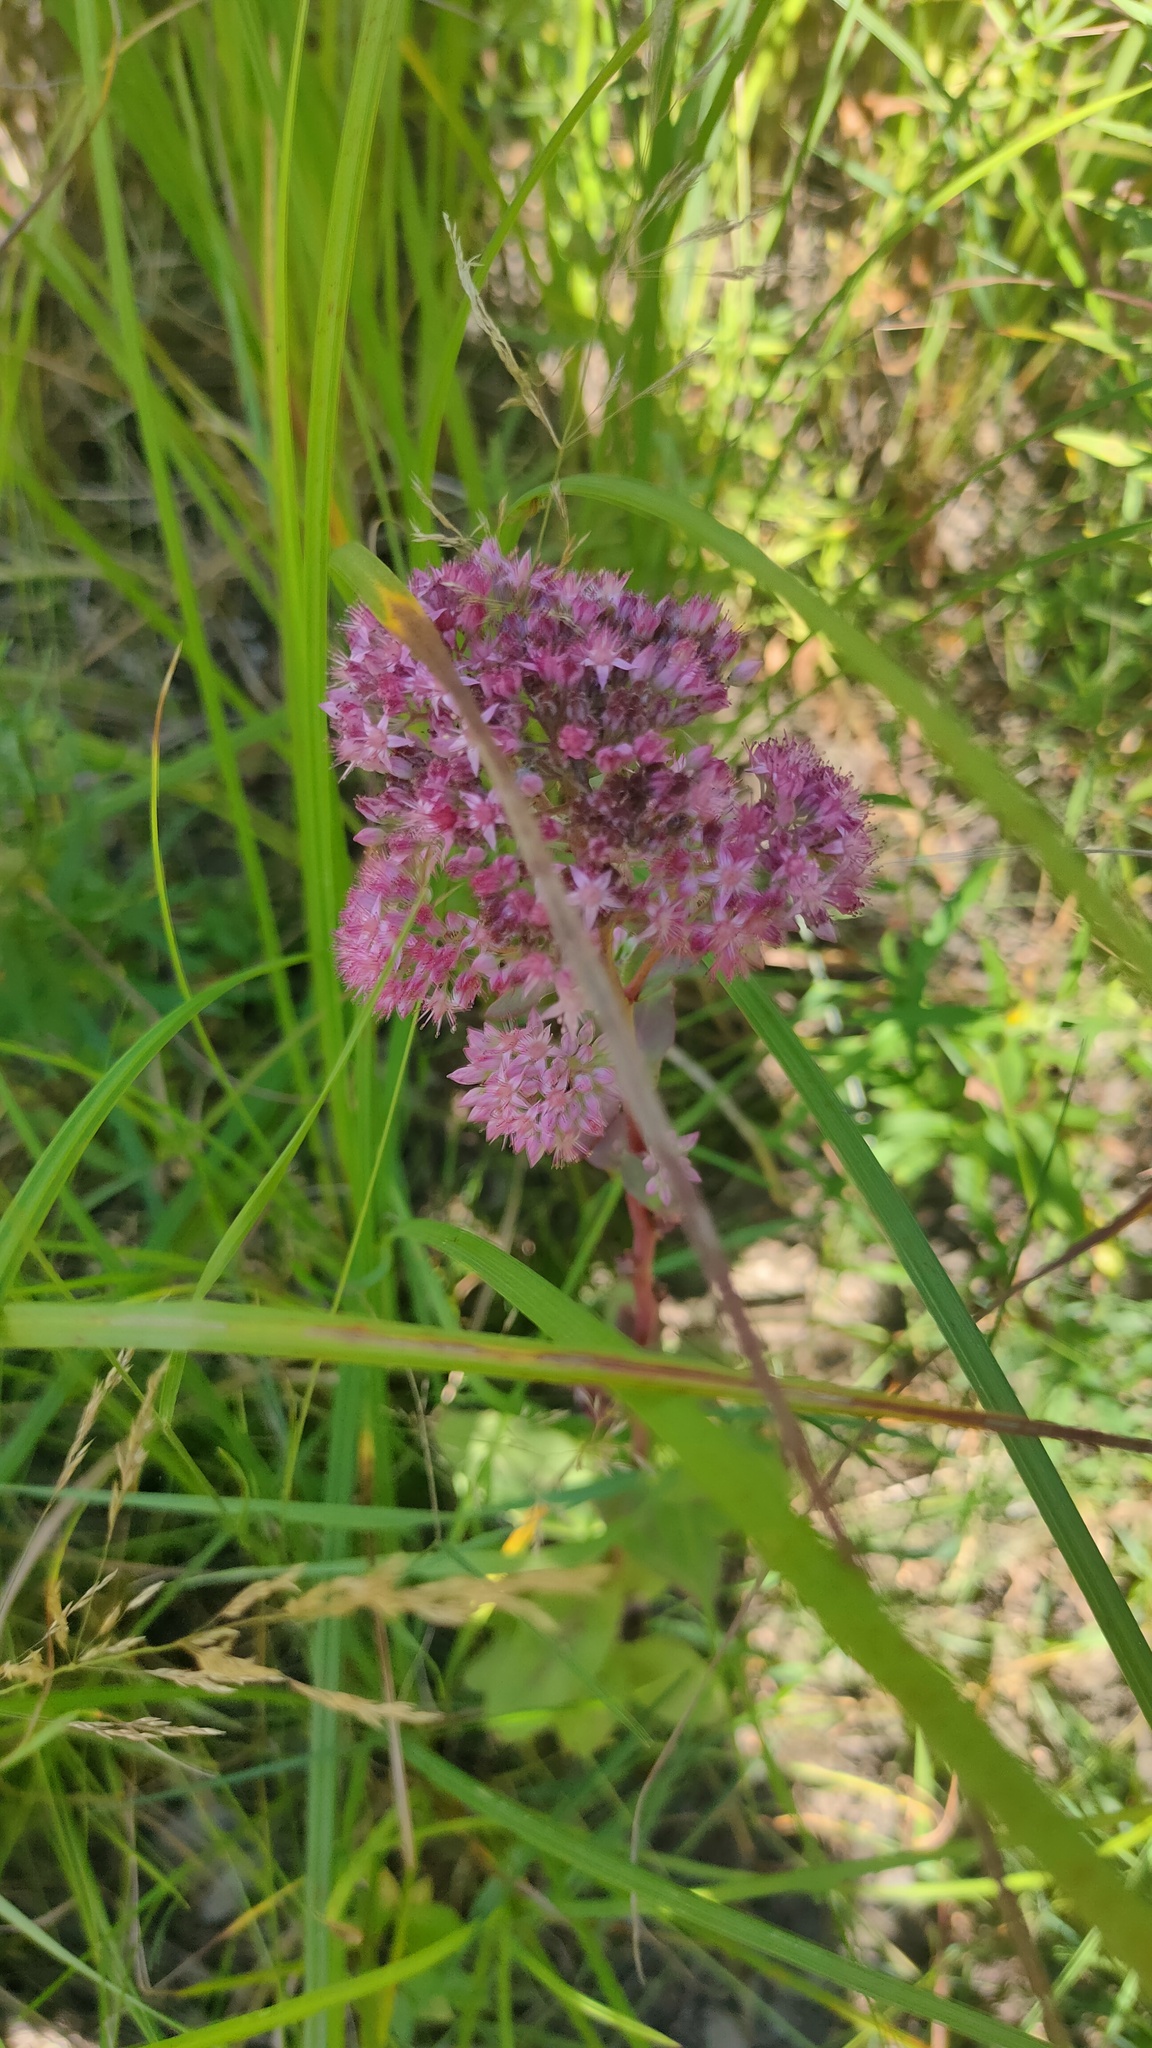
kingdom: Plantae
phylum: Tracheophyta
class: Magnoliopsida
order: Saxifragales
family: Crassulaceae
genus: Hylotelephium
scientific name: Hylotelephium telephium
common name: Live-forever
